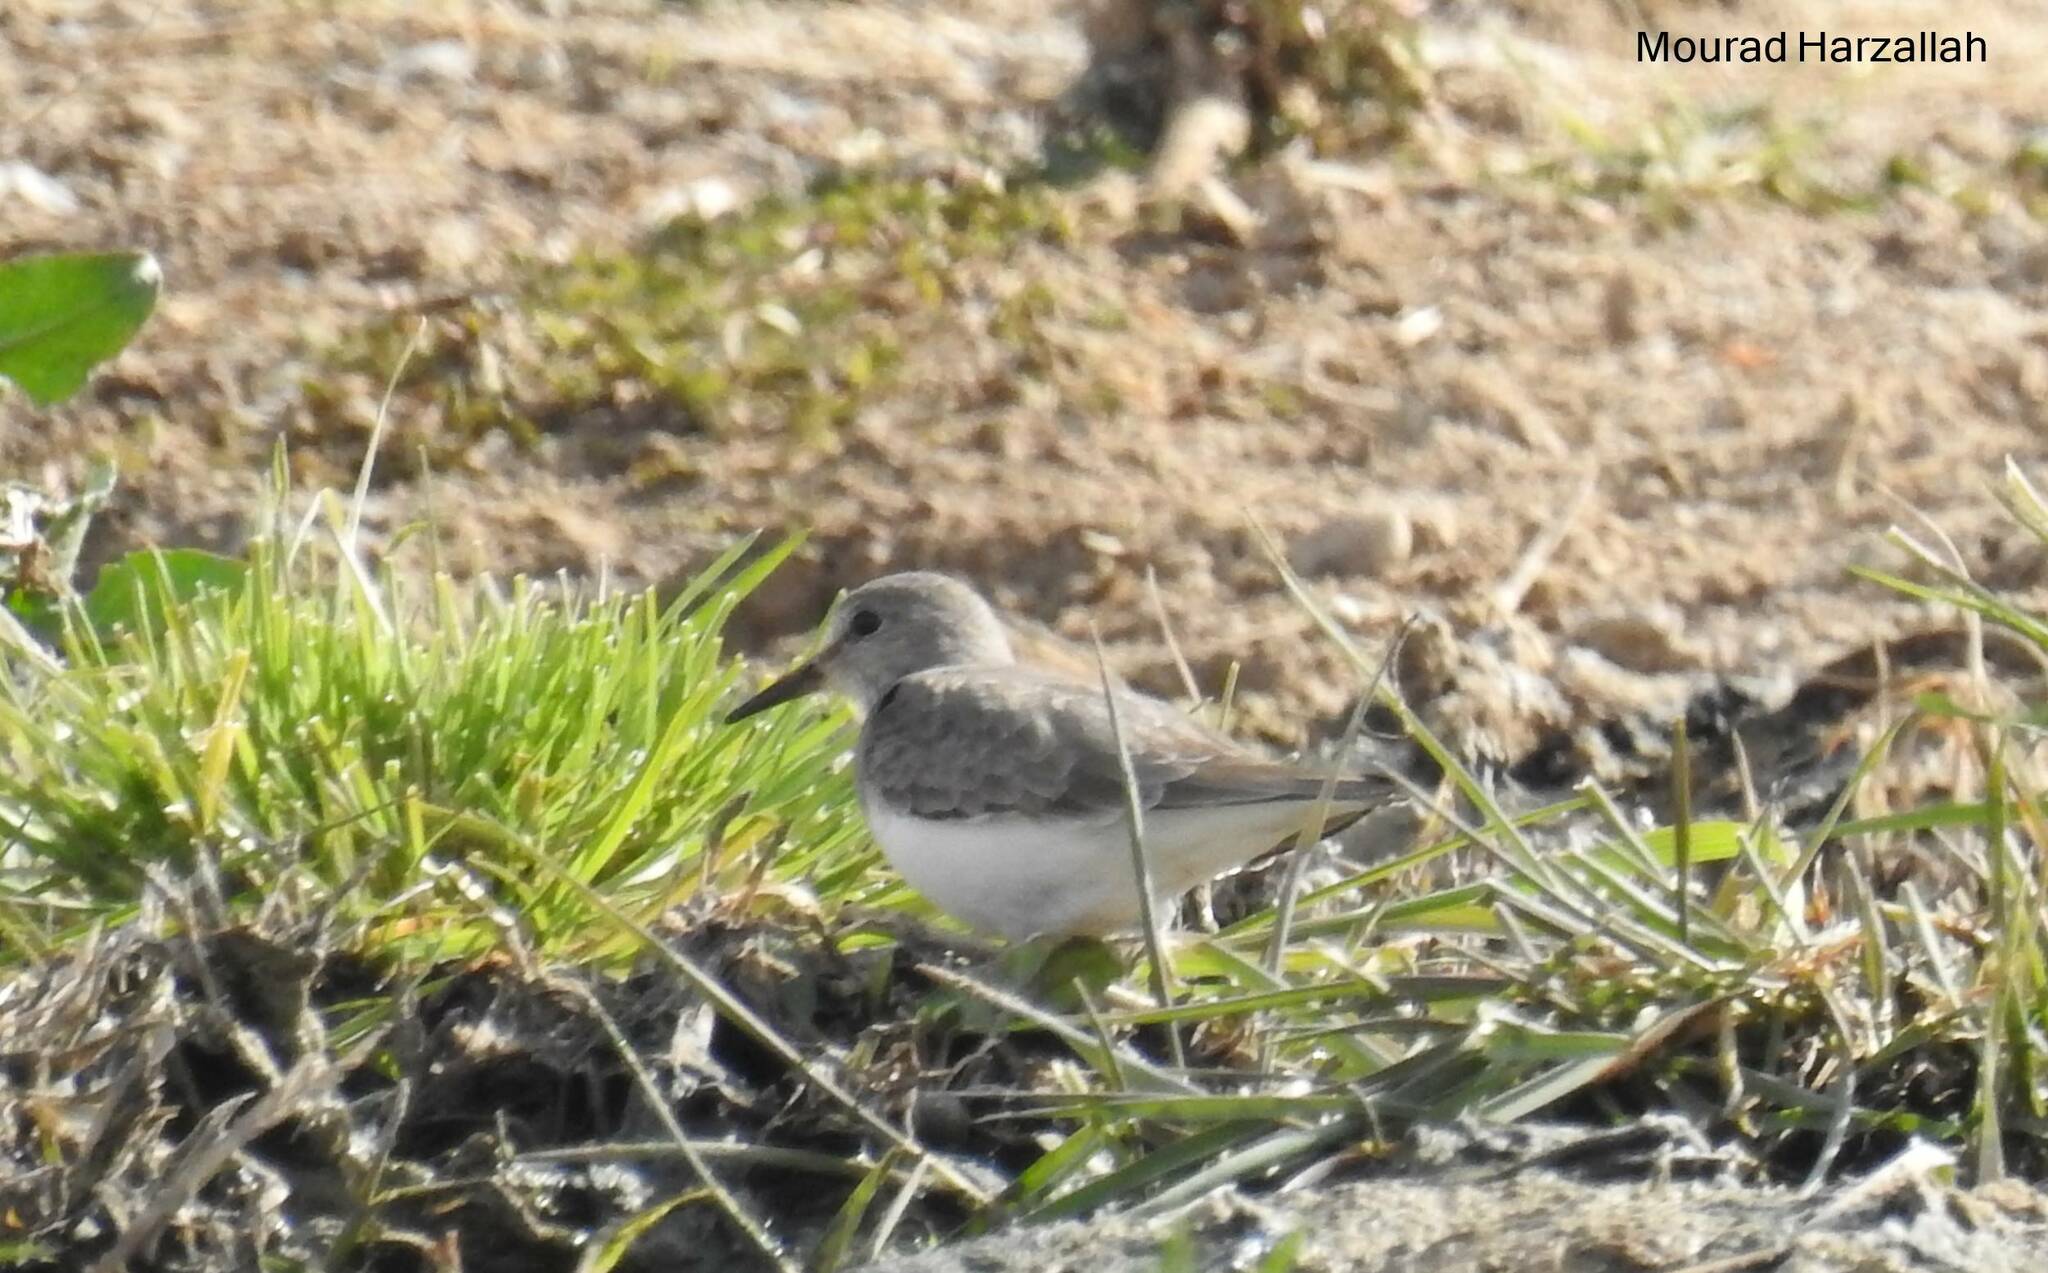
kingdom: Animalia
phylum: Chordata
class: Aves
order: Charadriiformes
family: Scolopacidae
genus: Calidris
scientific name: Calidris temminckii
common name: Temminck's stint
